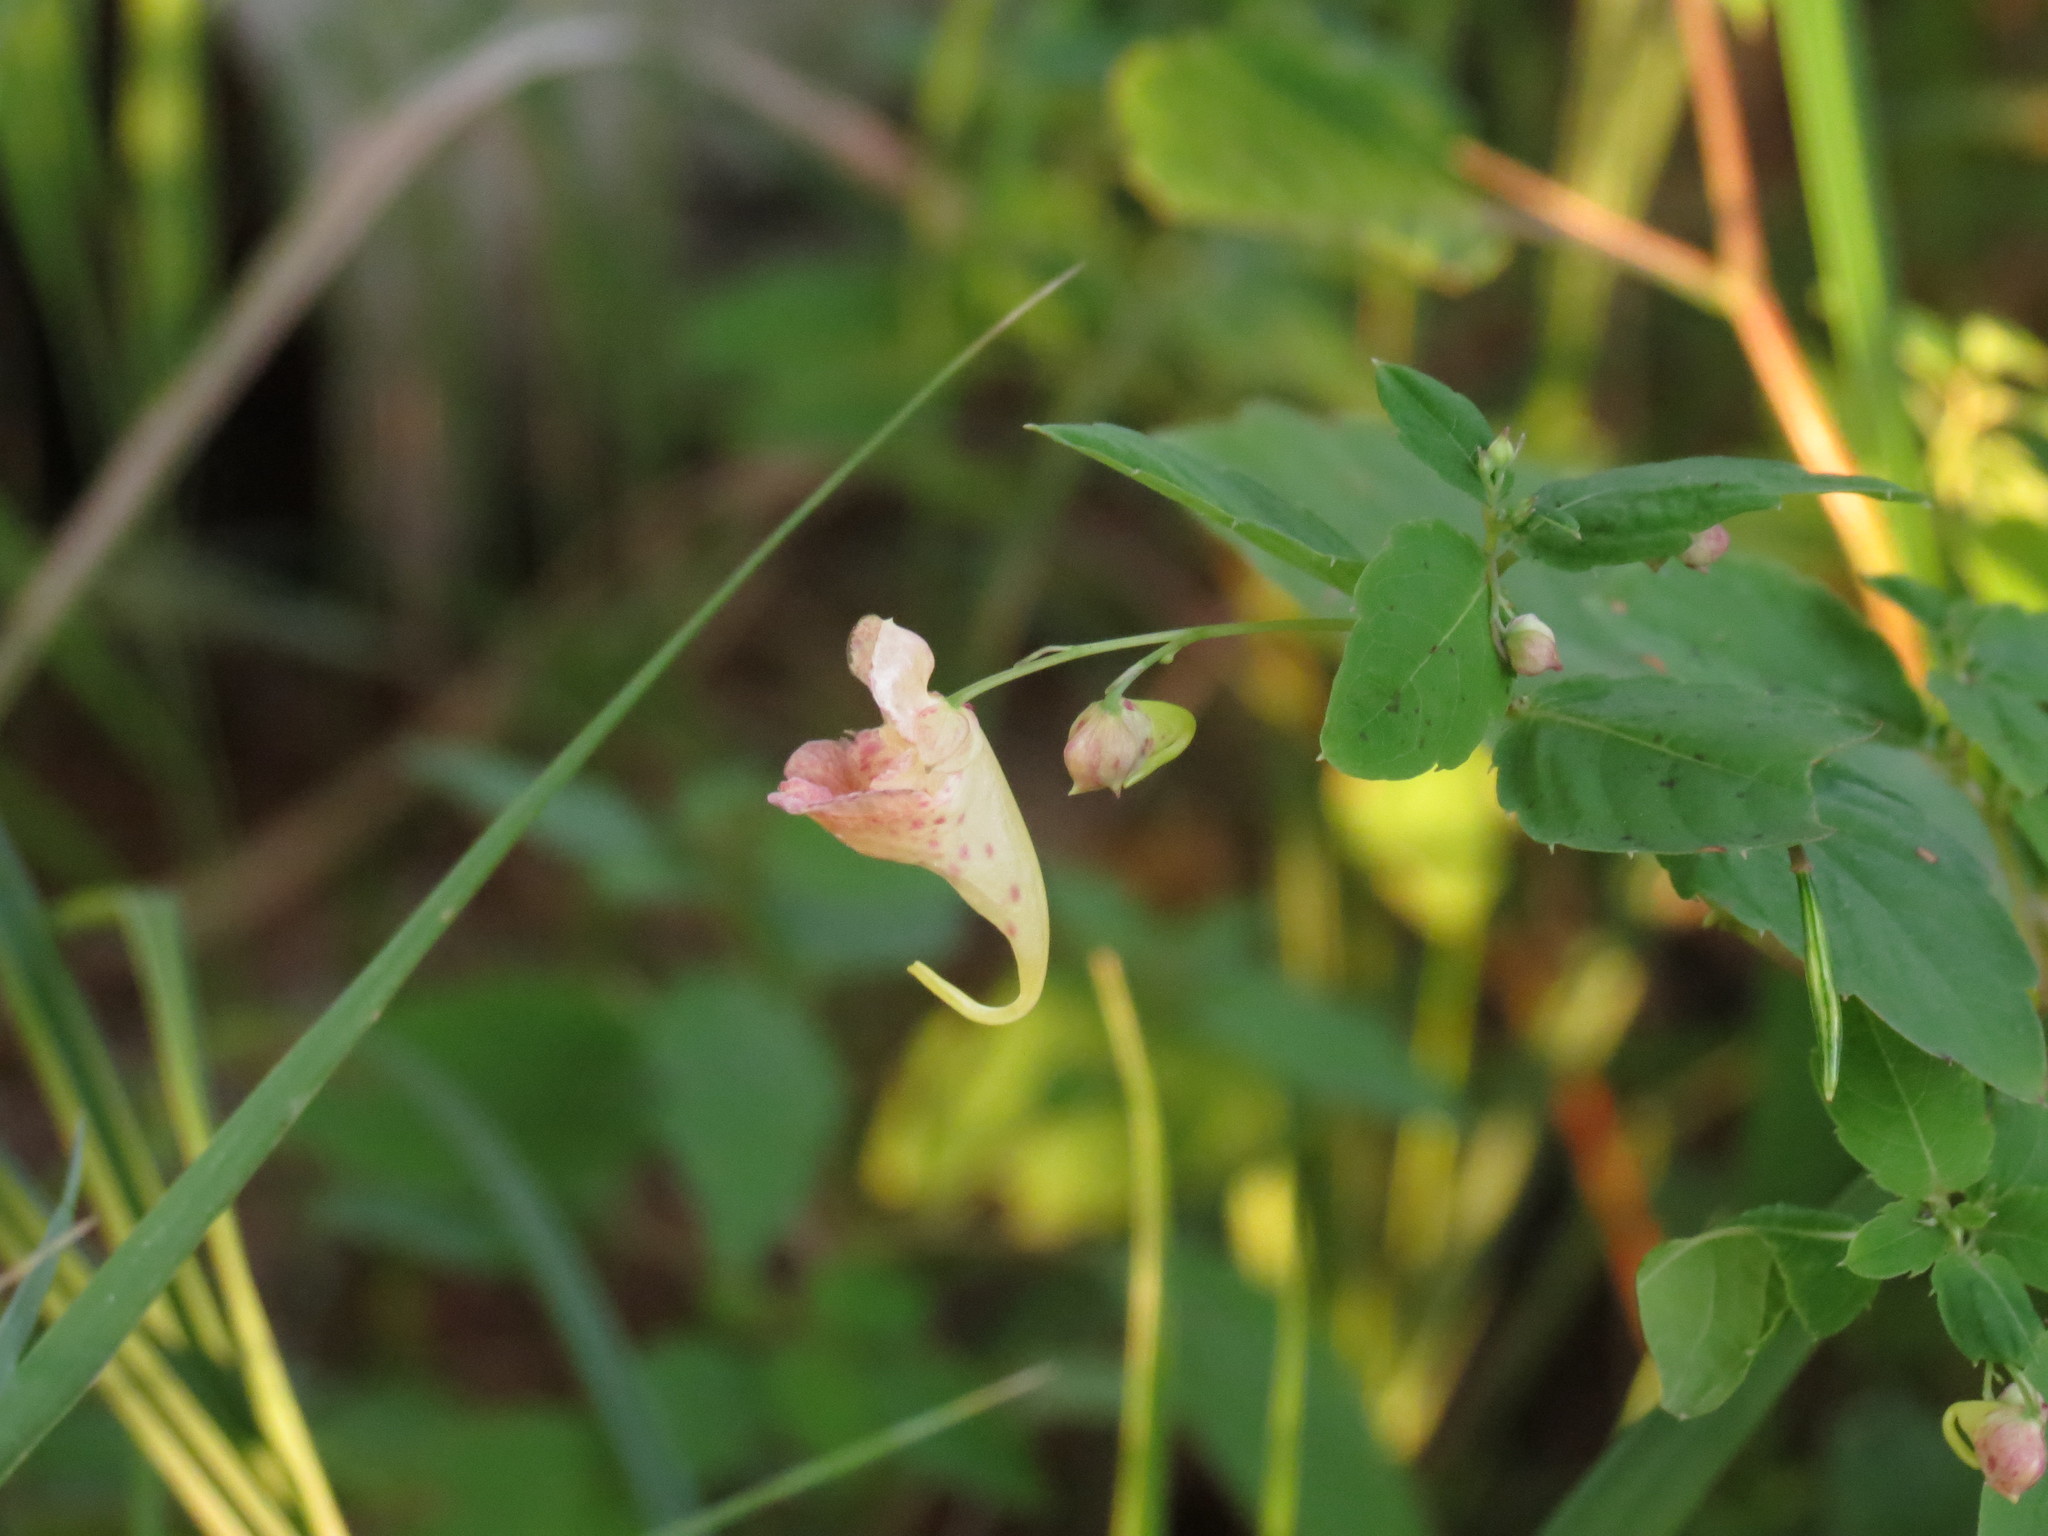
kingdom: Plantae
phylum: Tracheophyta
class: Magnoliopsida
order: Ericales
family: Balsaminaceae
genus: Impatiens
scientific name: Impatiens capensis
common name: Orange balsam
